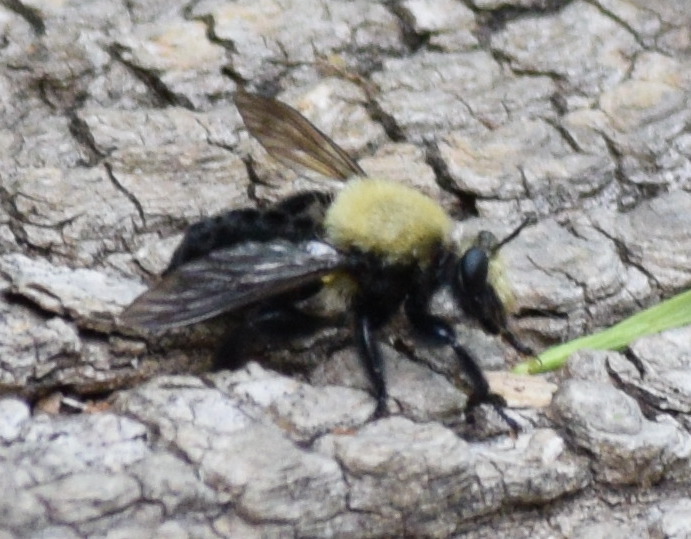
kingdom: Animalia
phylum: Arthropoda
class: Insecta
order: Diptera
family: Asilidae
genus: Laphria
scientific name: Laphria flavicollis
